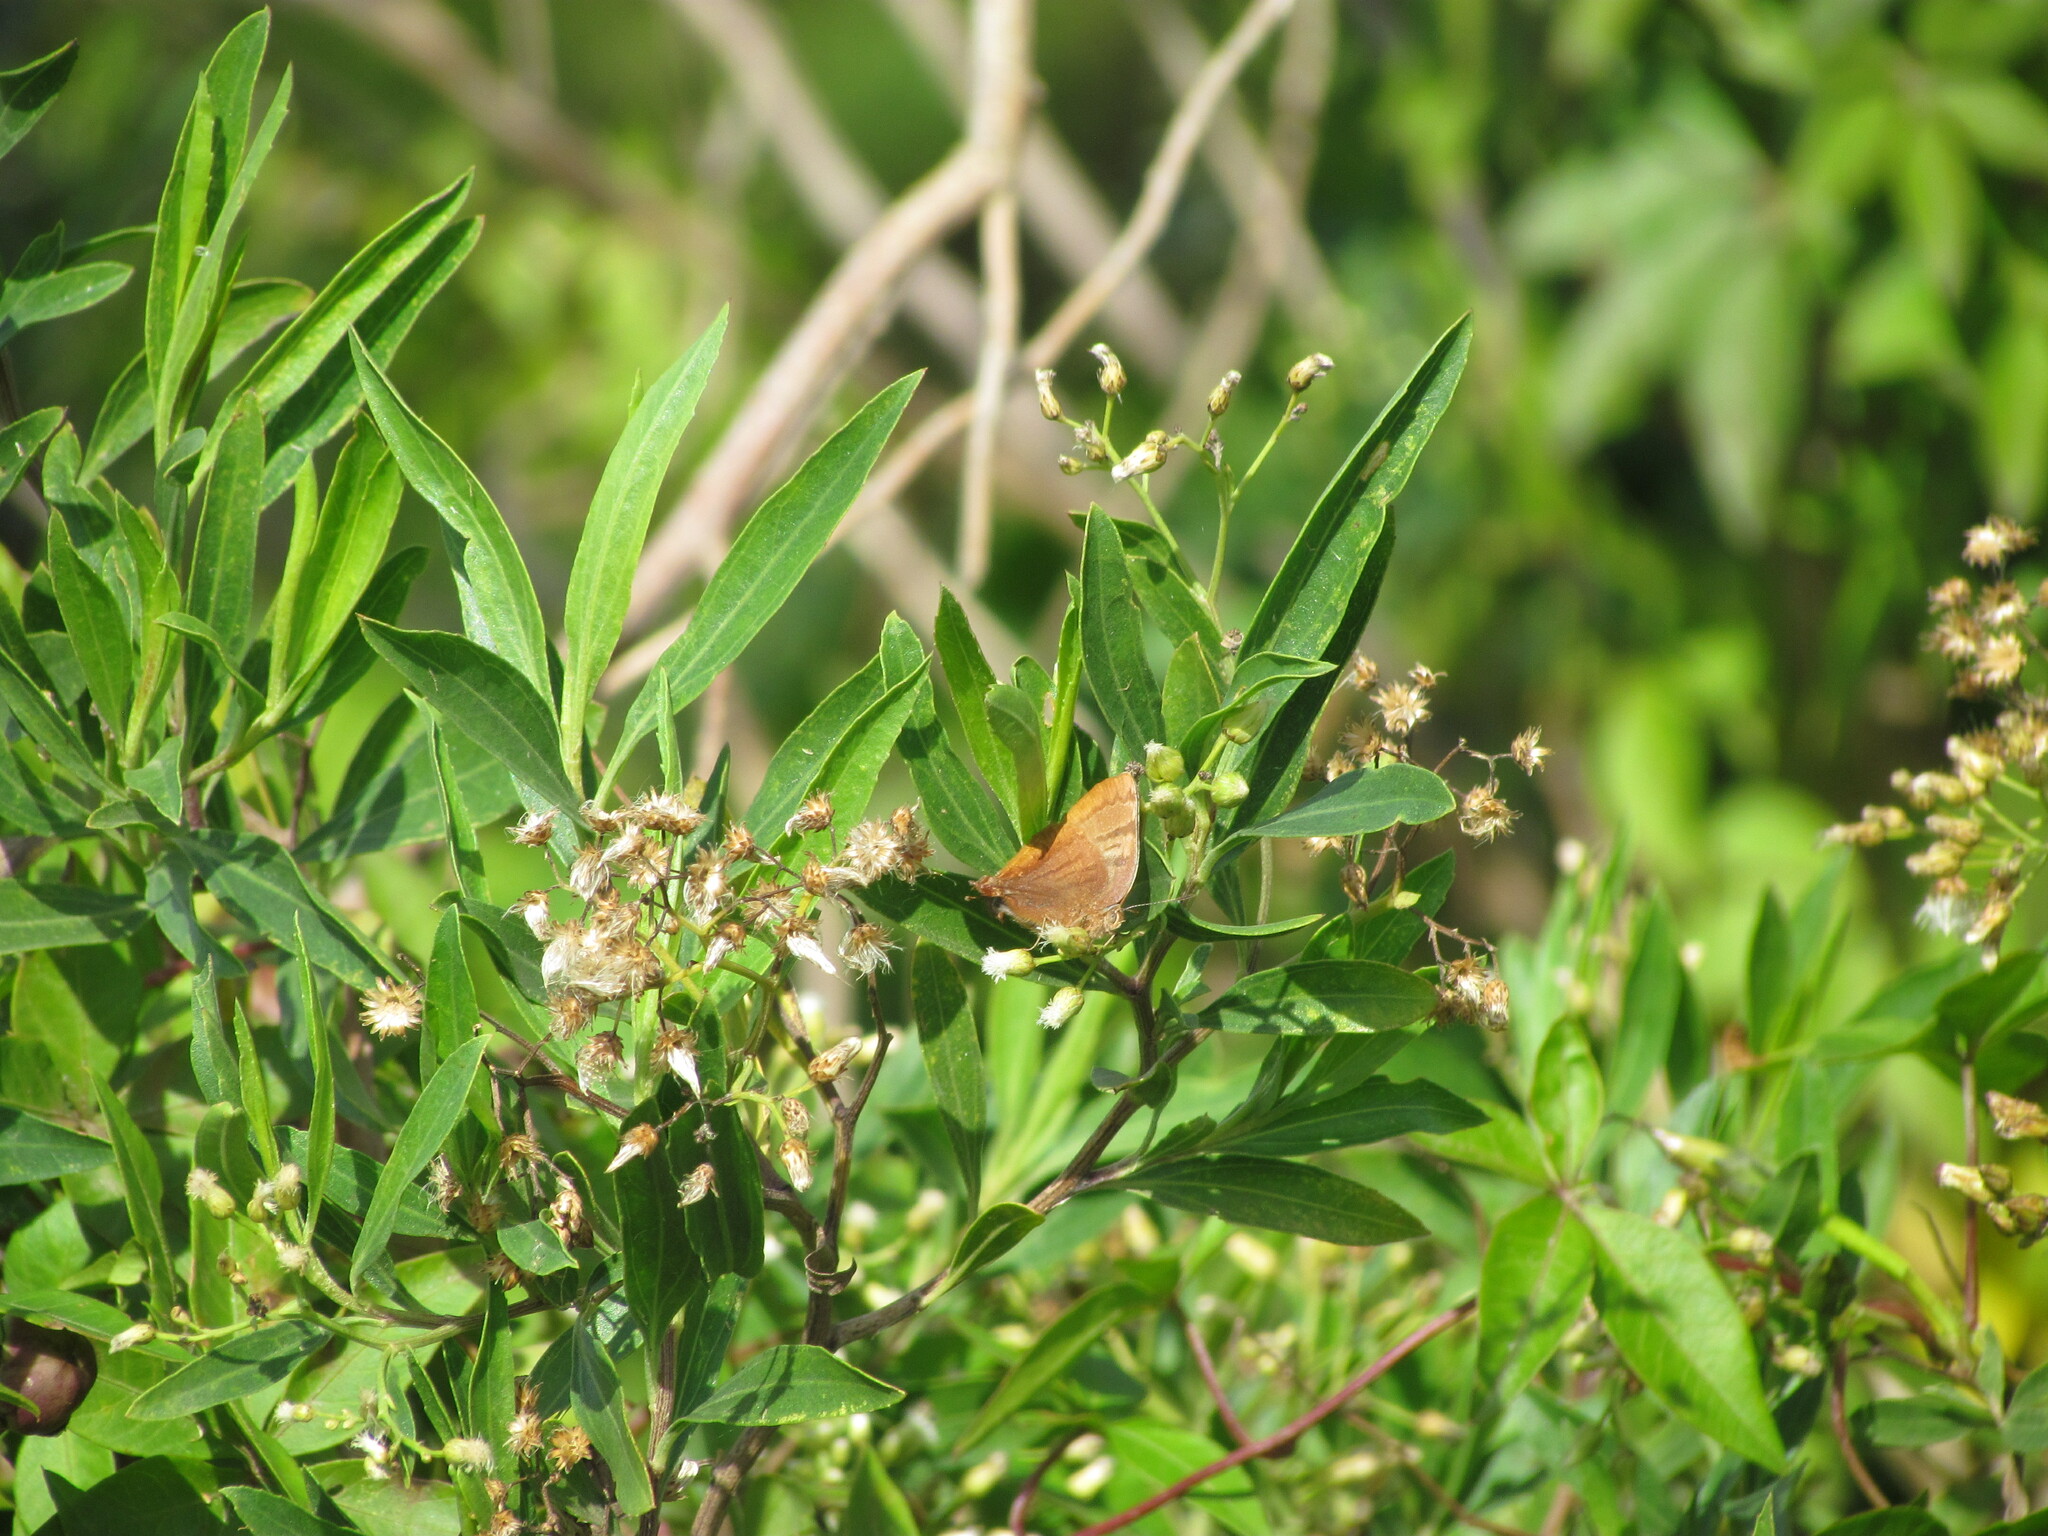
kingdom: Animalia
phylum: Arthropoda
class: Insecta
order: Lepidoptera
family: Lycaenidae
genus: Thecla
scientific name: Thecla marius
